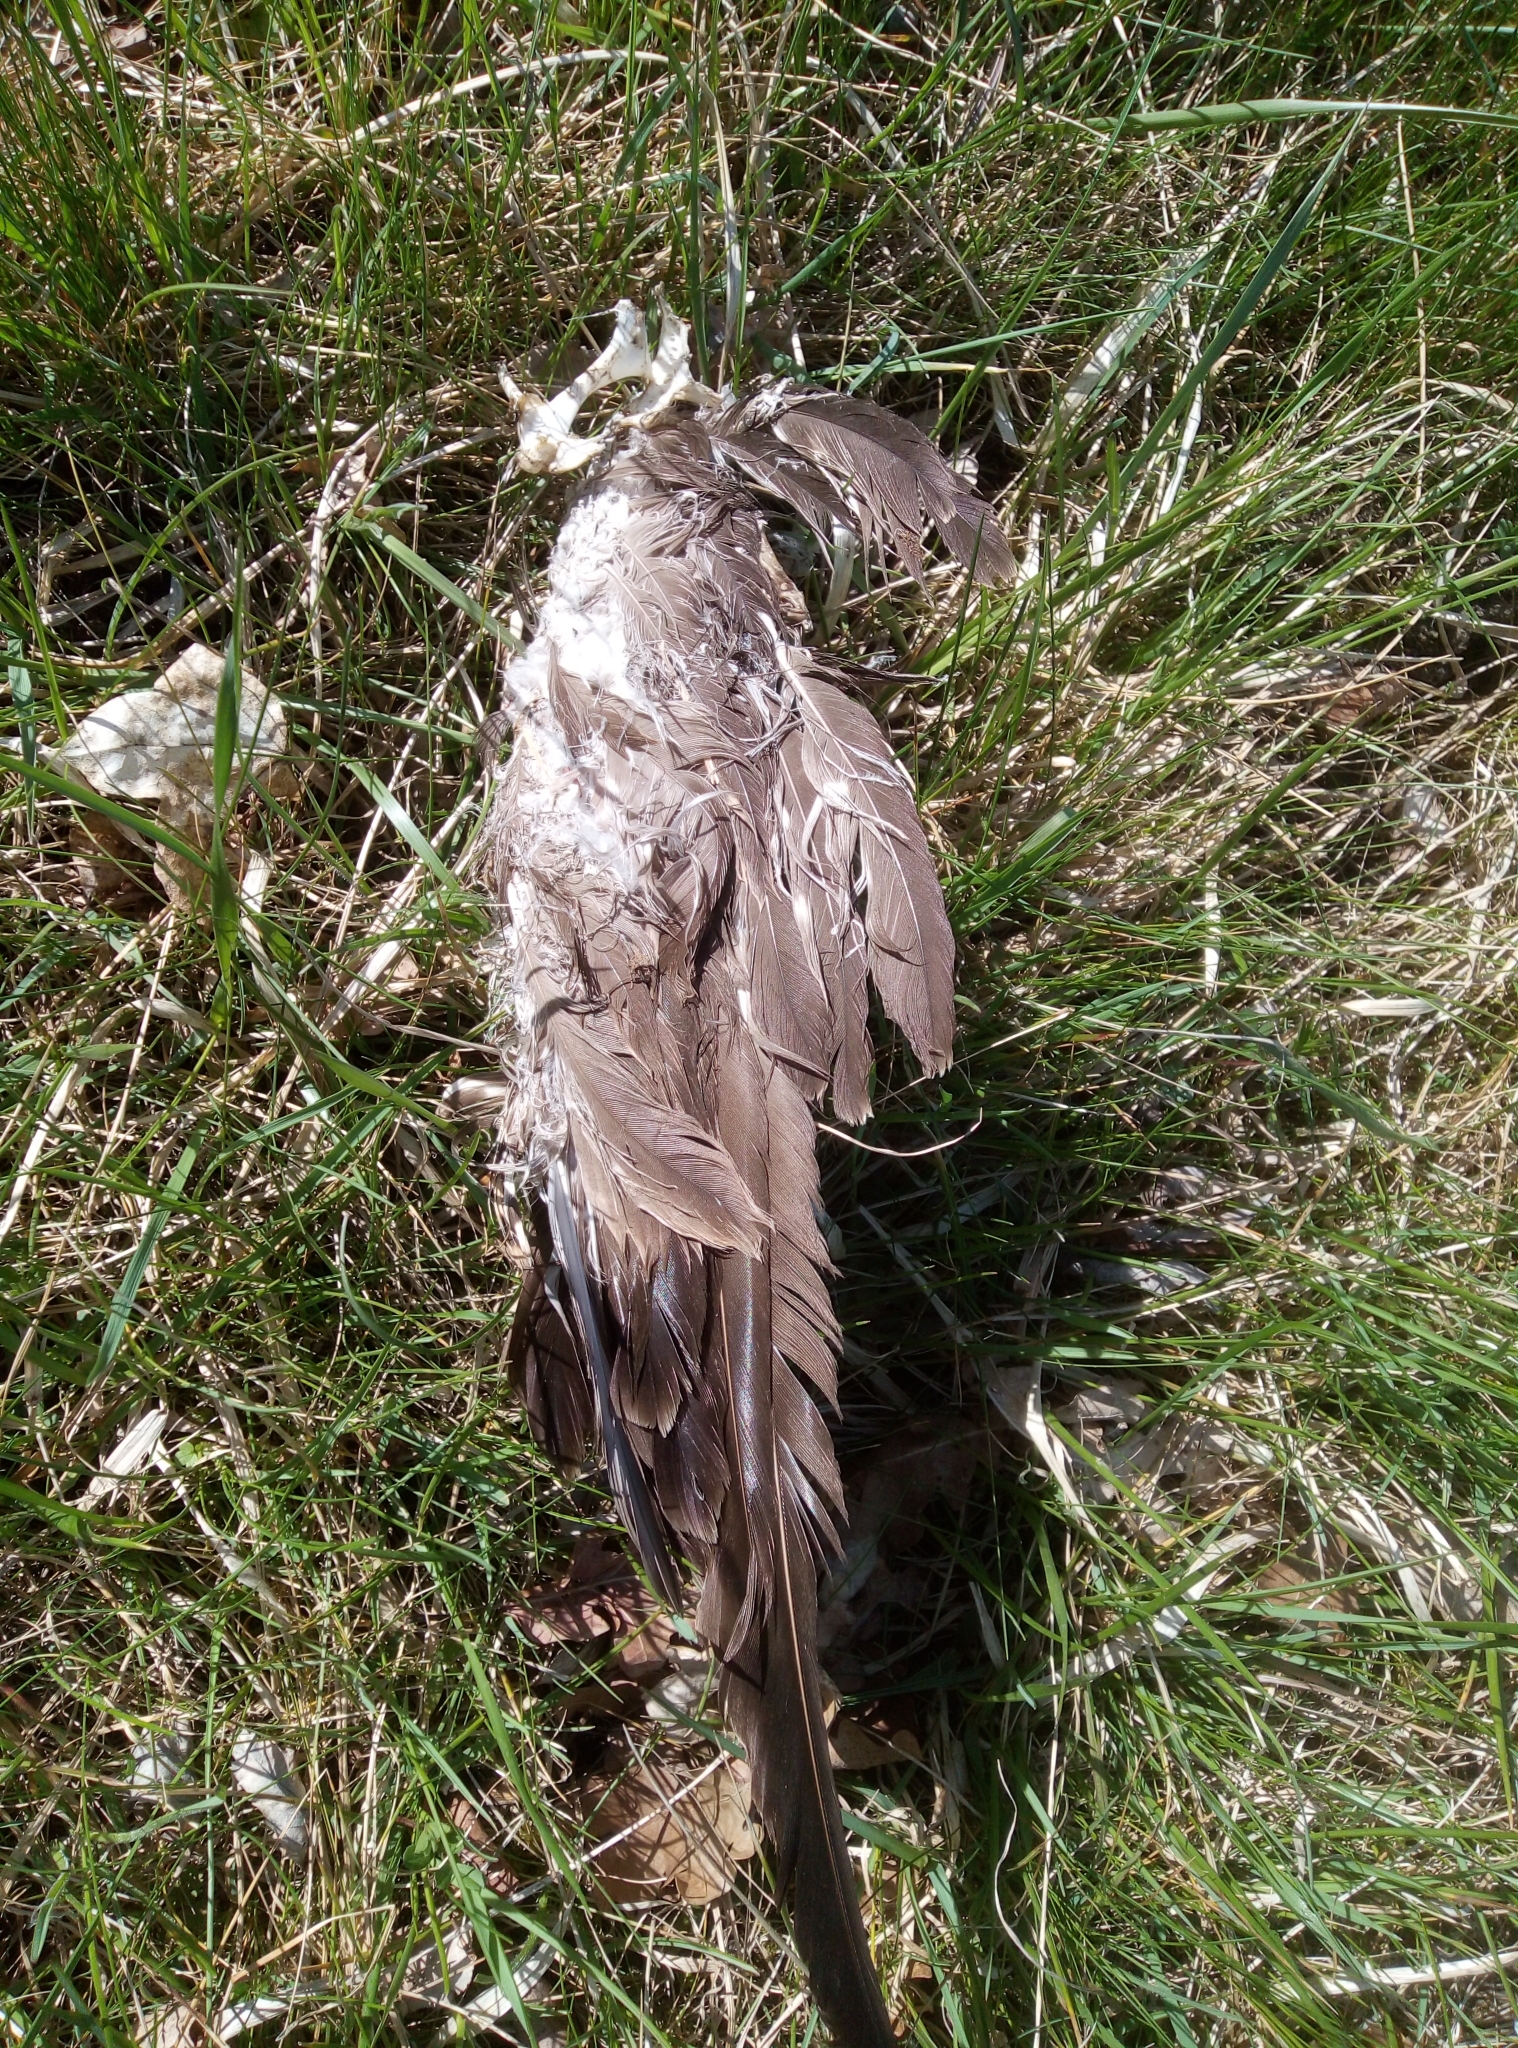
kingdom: Animalia
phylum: Chordata
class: Aves
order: Accipitriformes
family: Accipitridae
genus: Buteo
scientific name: Buteo buteo
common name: Common buzzard
